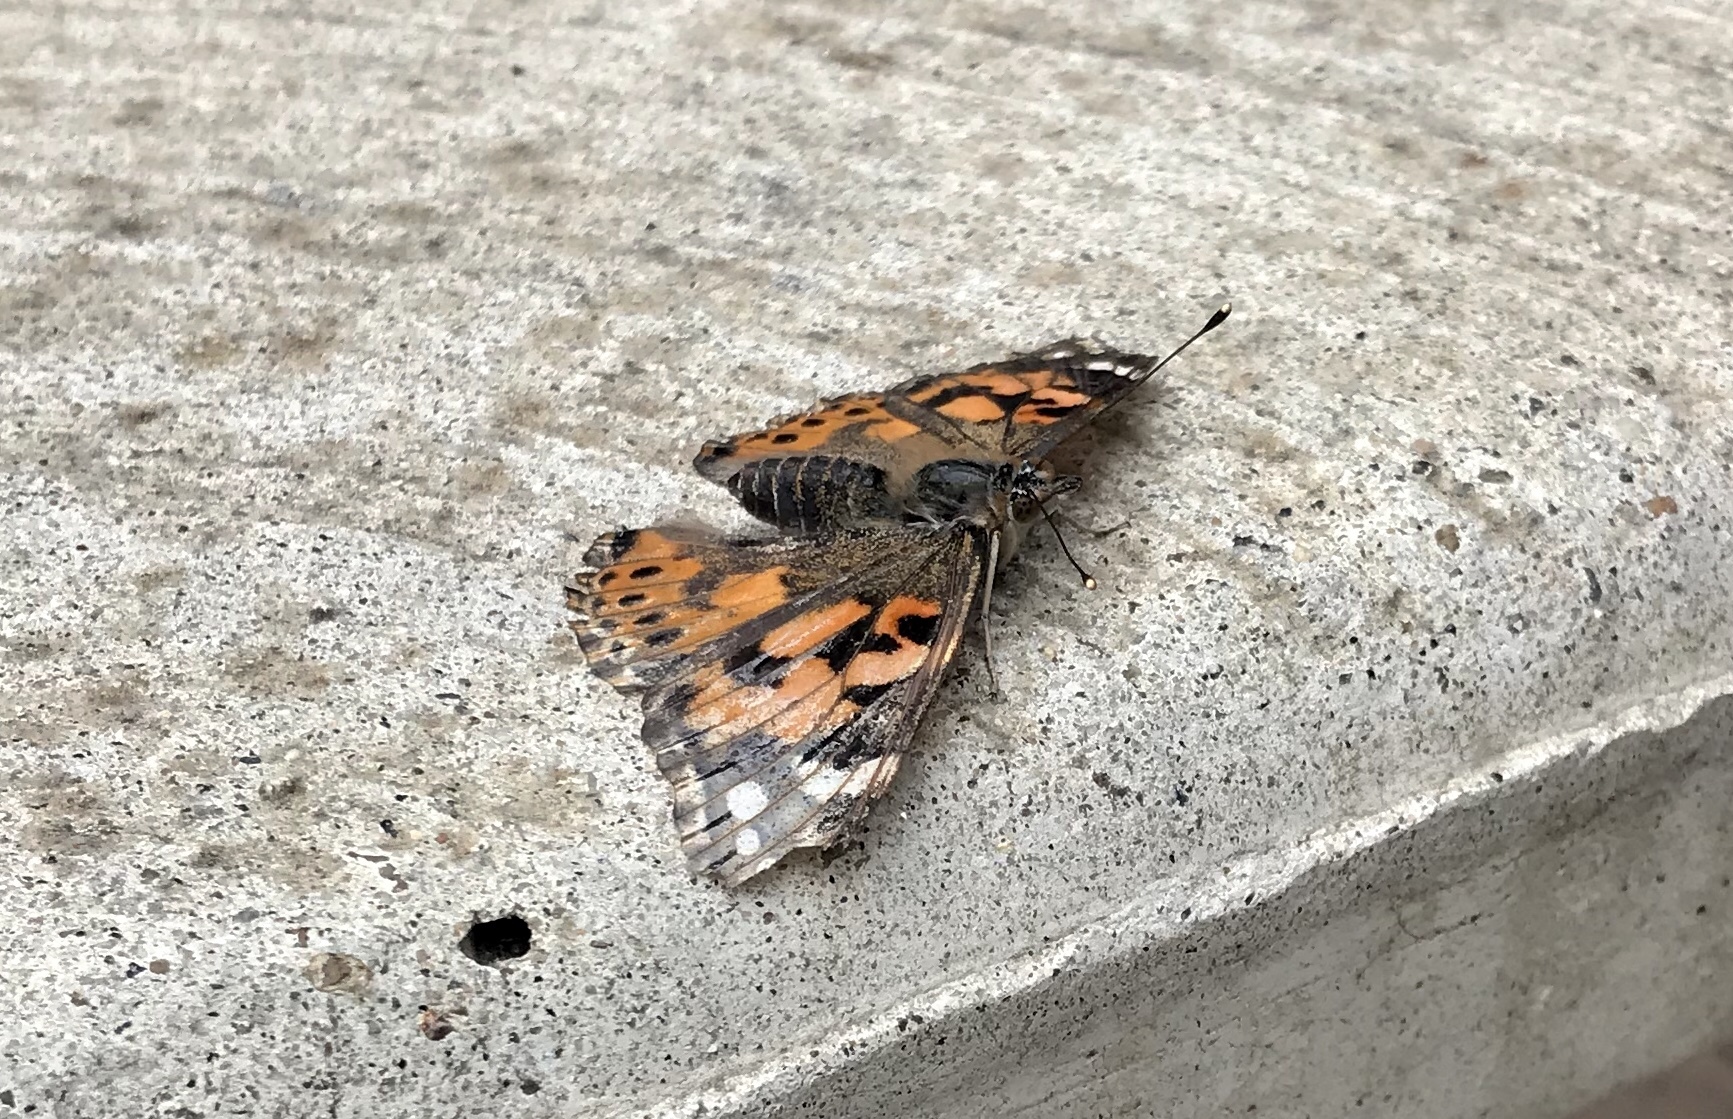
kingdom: Animalia
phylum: Arthropoda
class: Insecta
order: Lepidoptera
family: Nymphalidae
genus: Vanessa
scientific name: Vanessa cardui
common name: Painted lady
